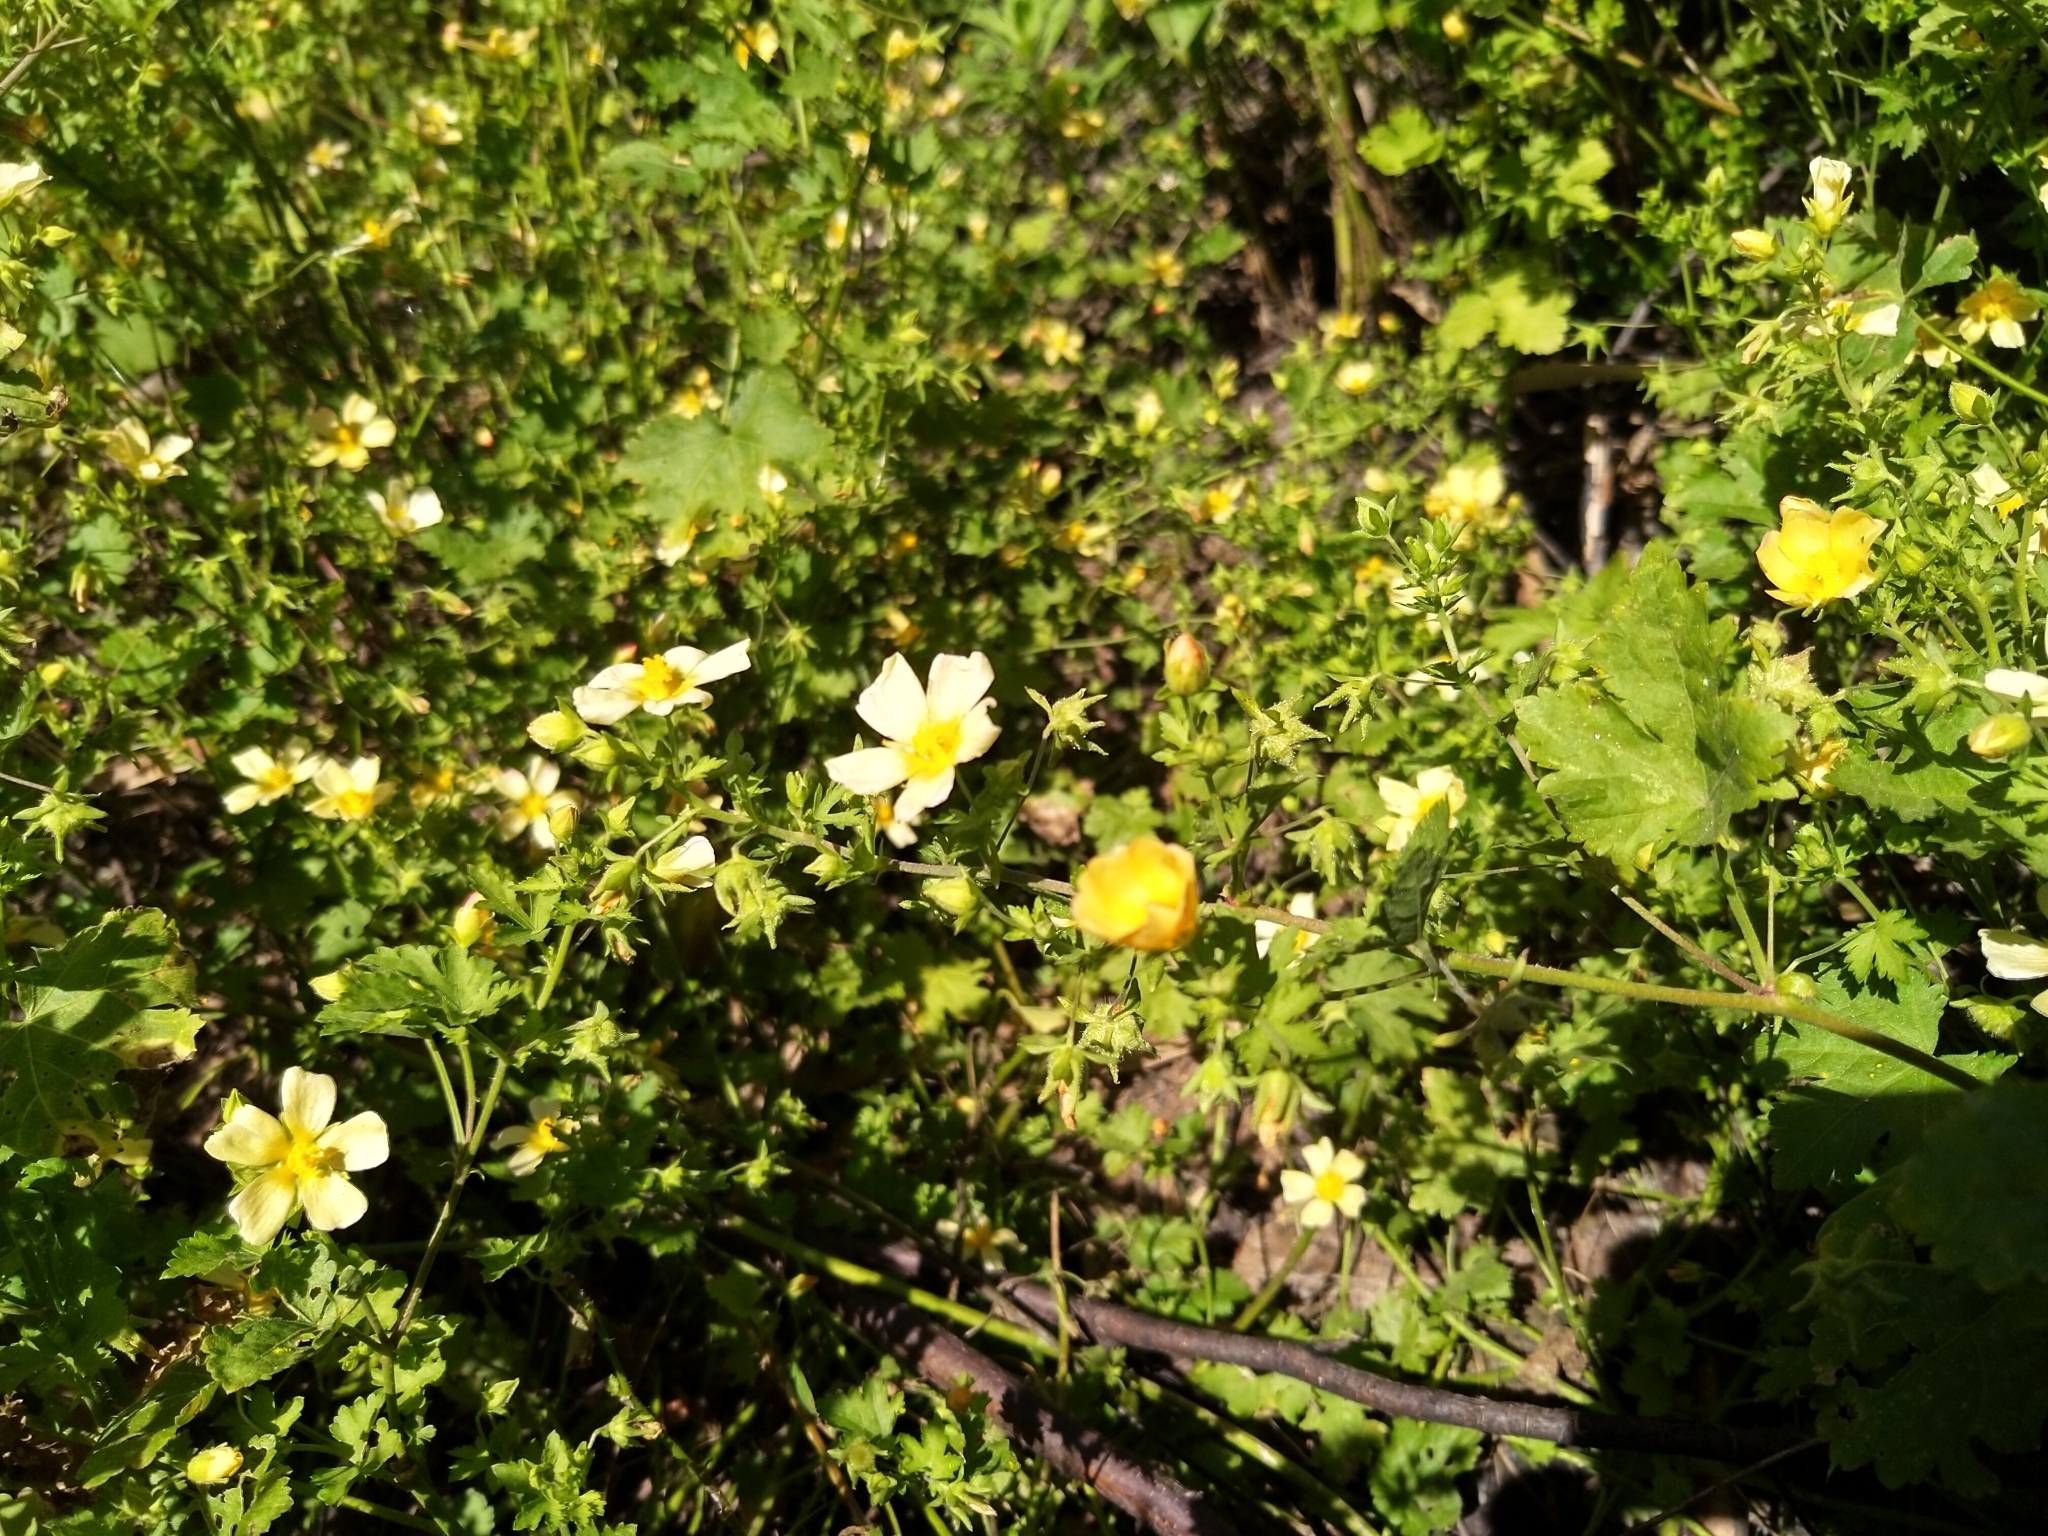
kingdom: Plantae
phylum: Tracheophyta
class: Magnoliopsida
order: Malvales
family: Malvaceae
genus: Modiolastrum
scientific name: Modiolastrum malvifolium
